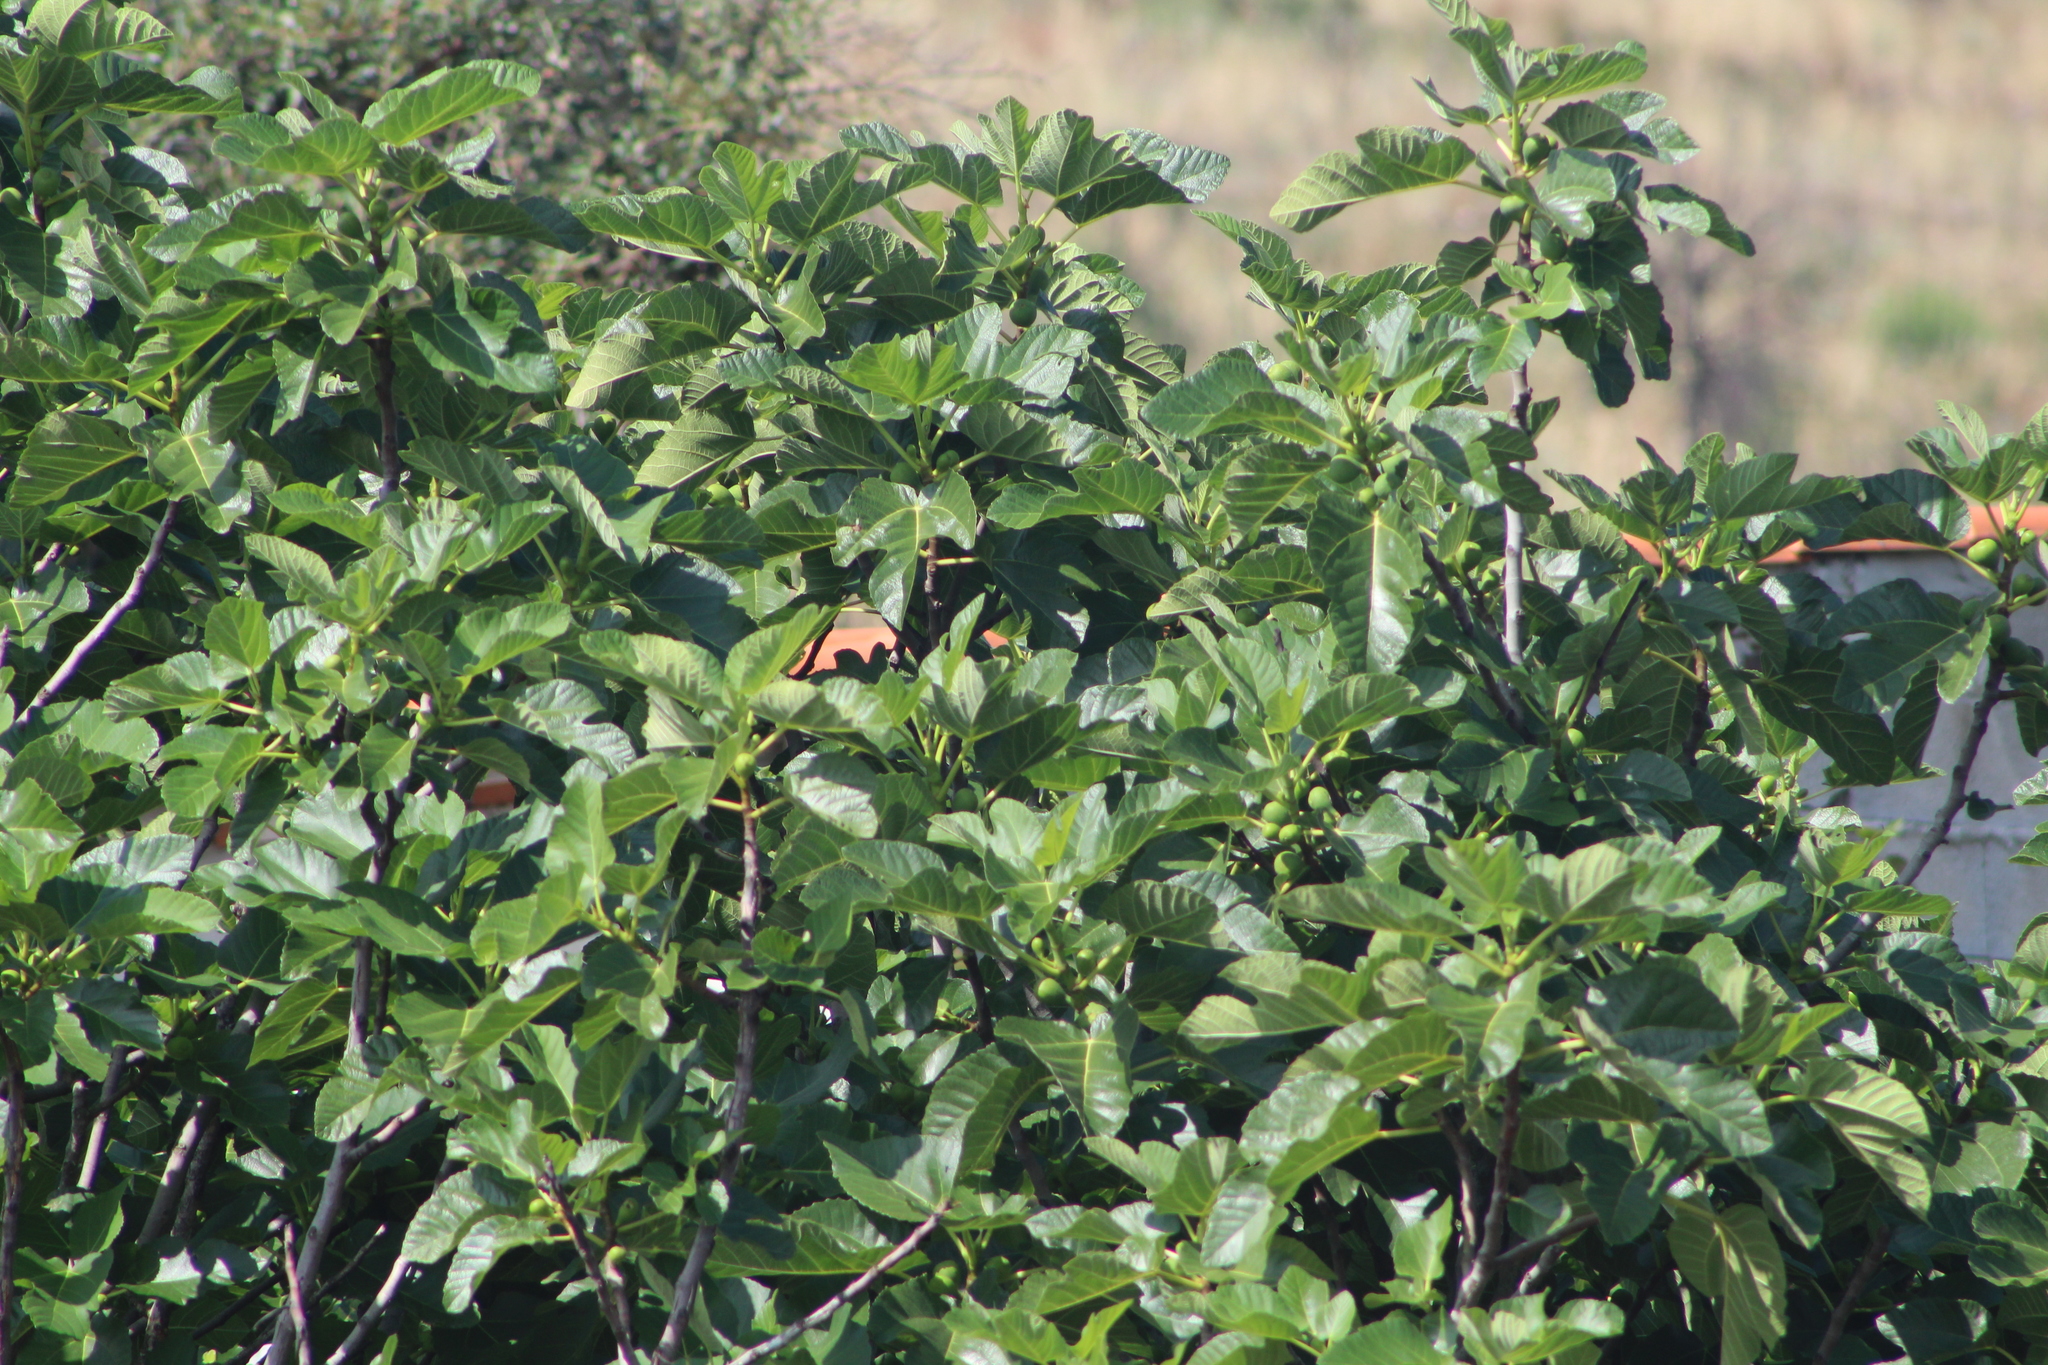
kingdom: Plantae
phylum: Tracheophyta
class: Magnoliopsida
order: Rosales
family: Moraceae
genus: Ficus
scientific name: Ficus carica
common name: Fig
